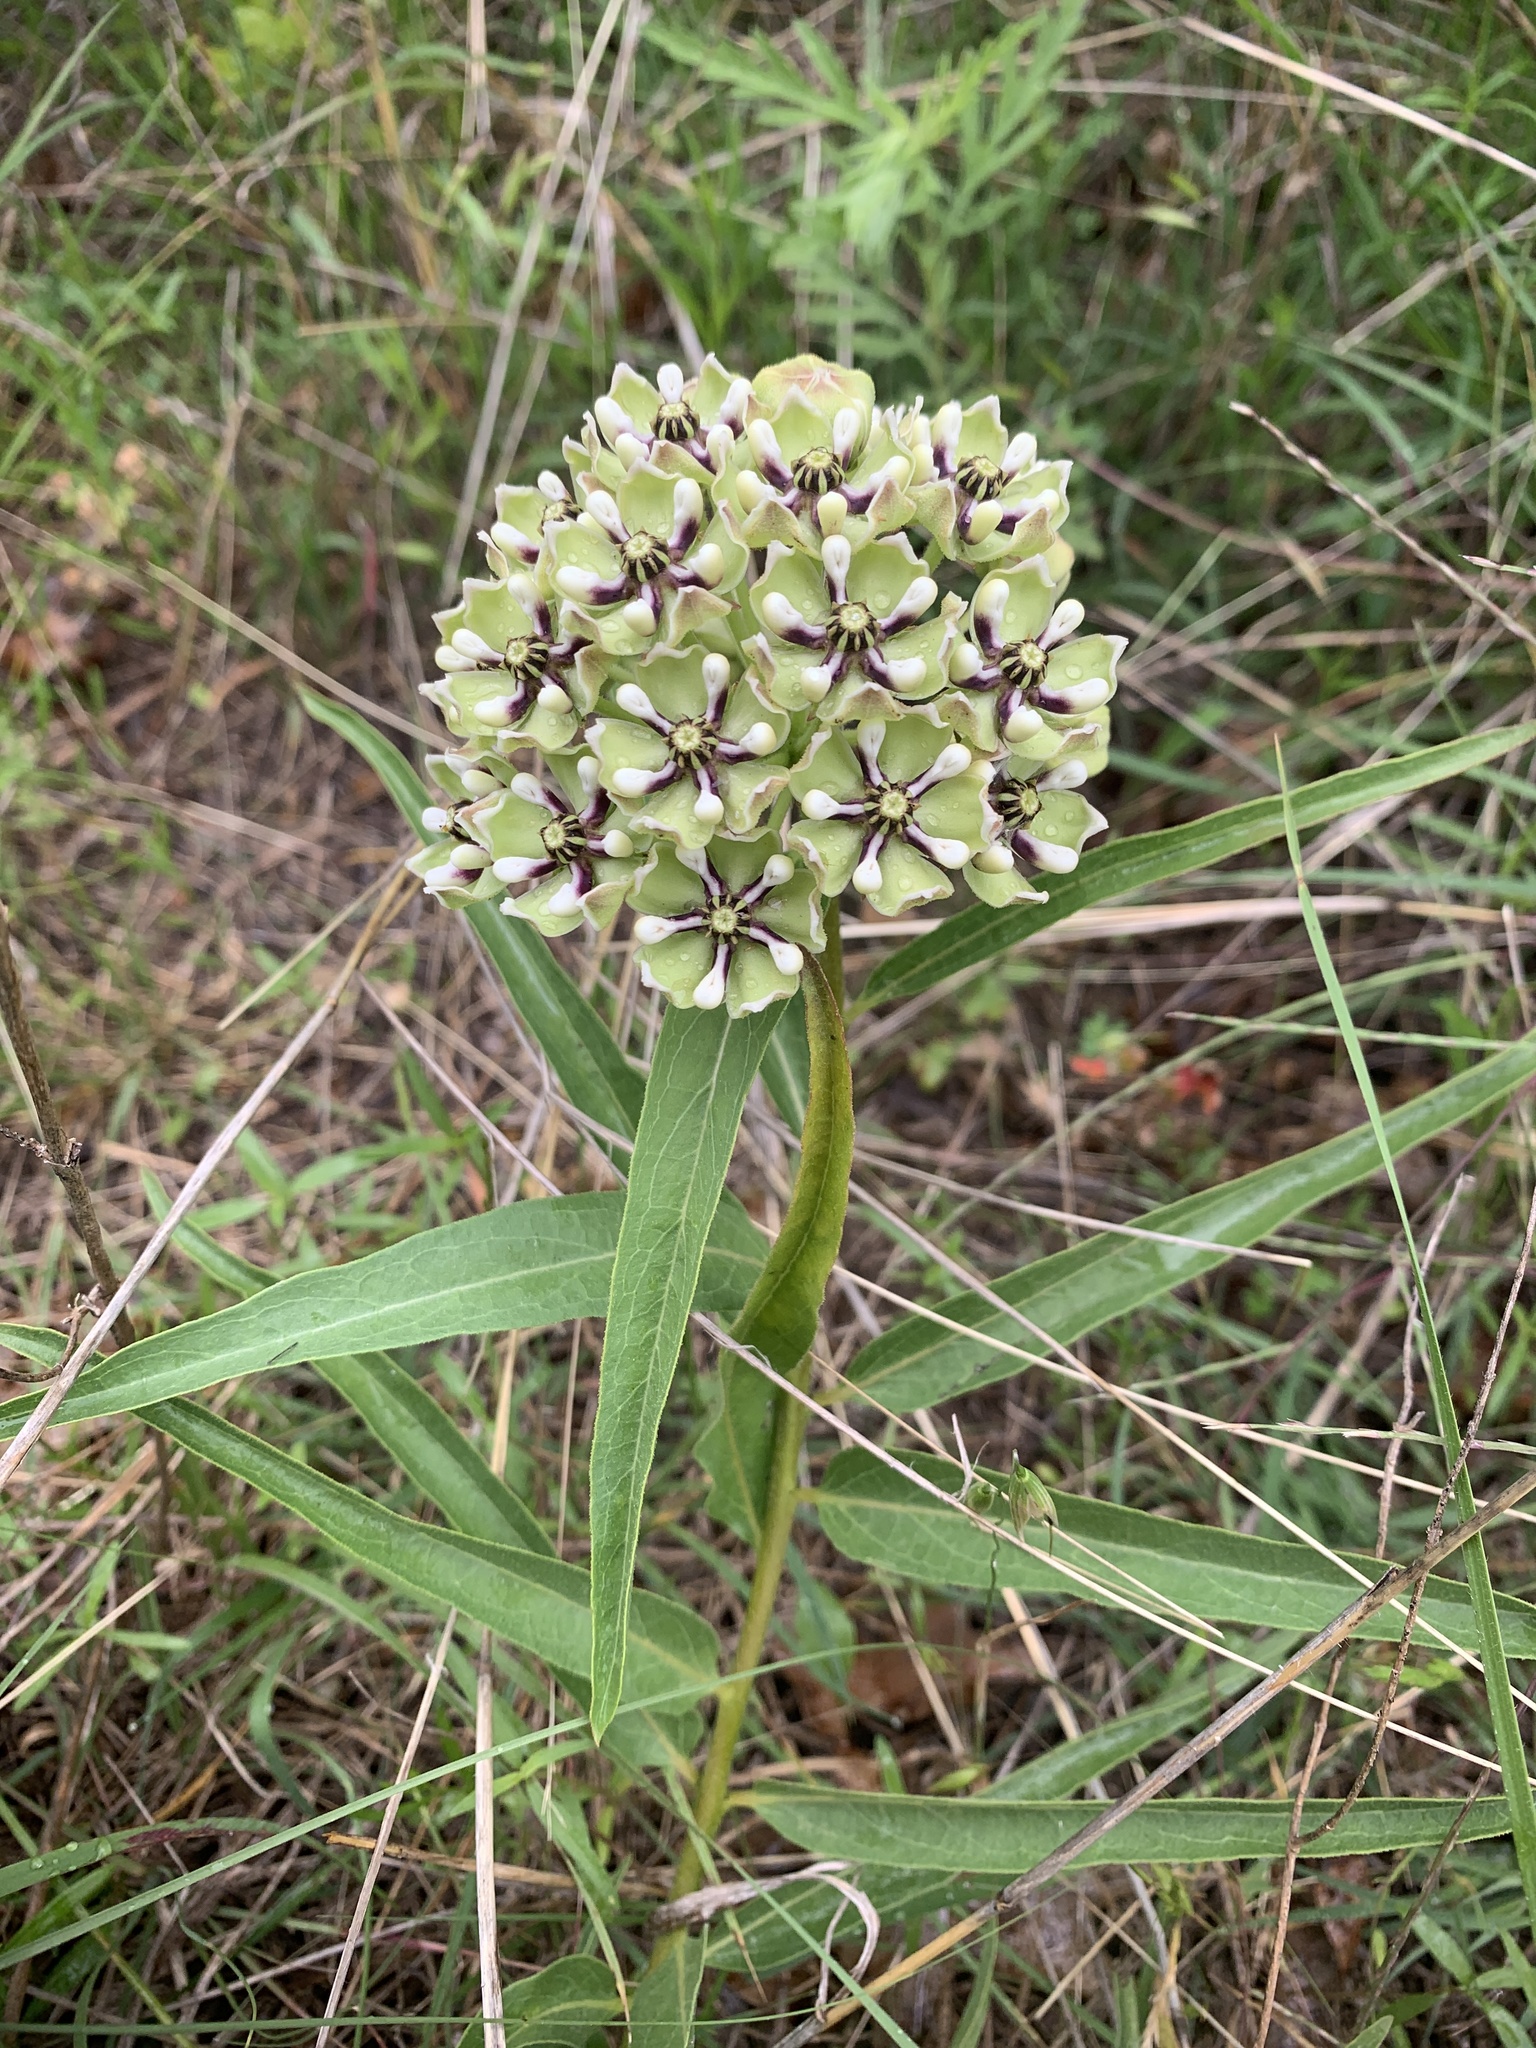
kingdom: Plantae
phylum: Tracheophyta
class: Magnoliopsida
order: Gentianales
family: Apocynaceae
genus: Asclepias
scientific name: Asclepias asperula
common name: Antelope horns
